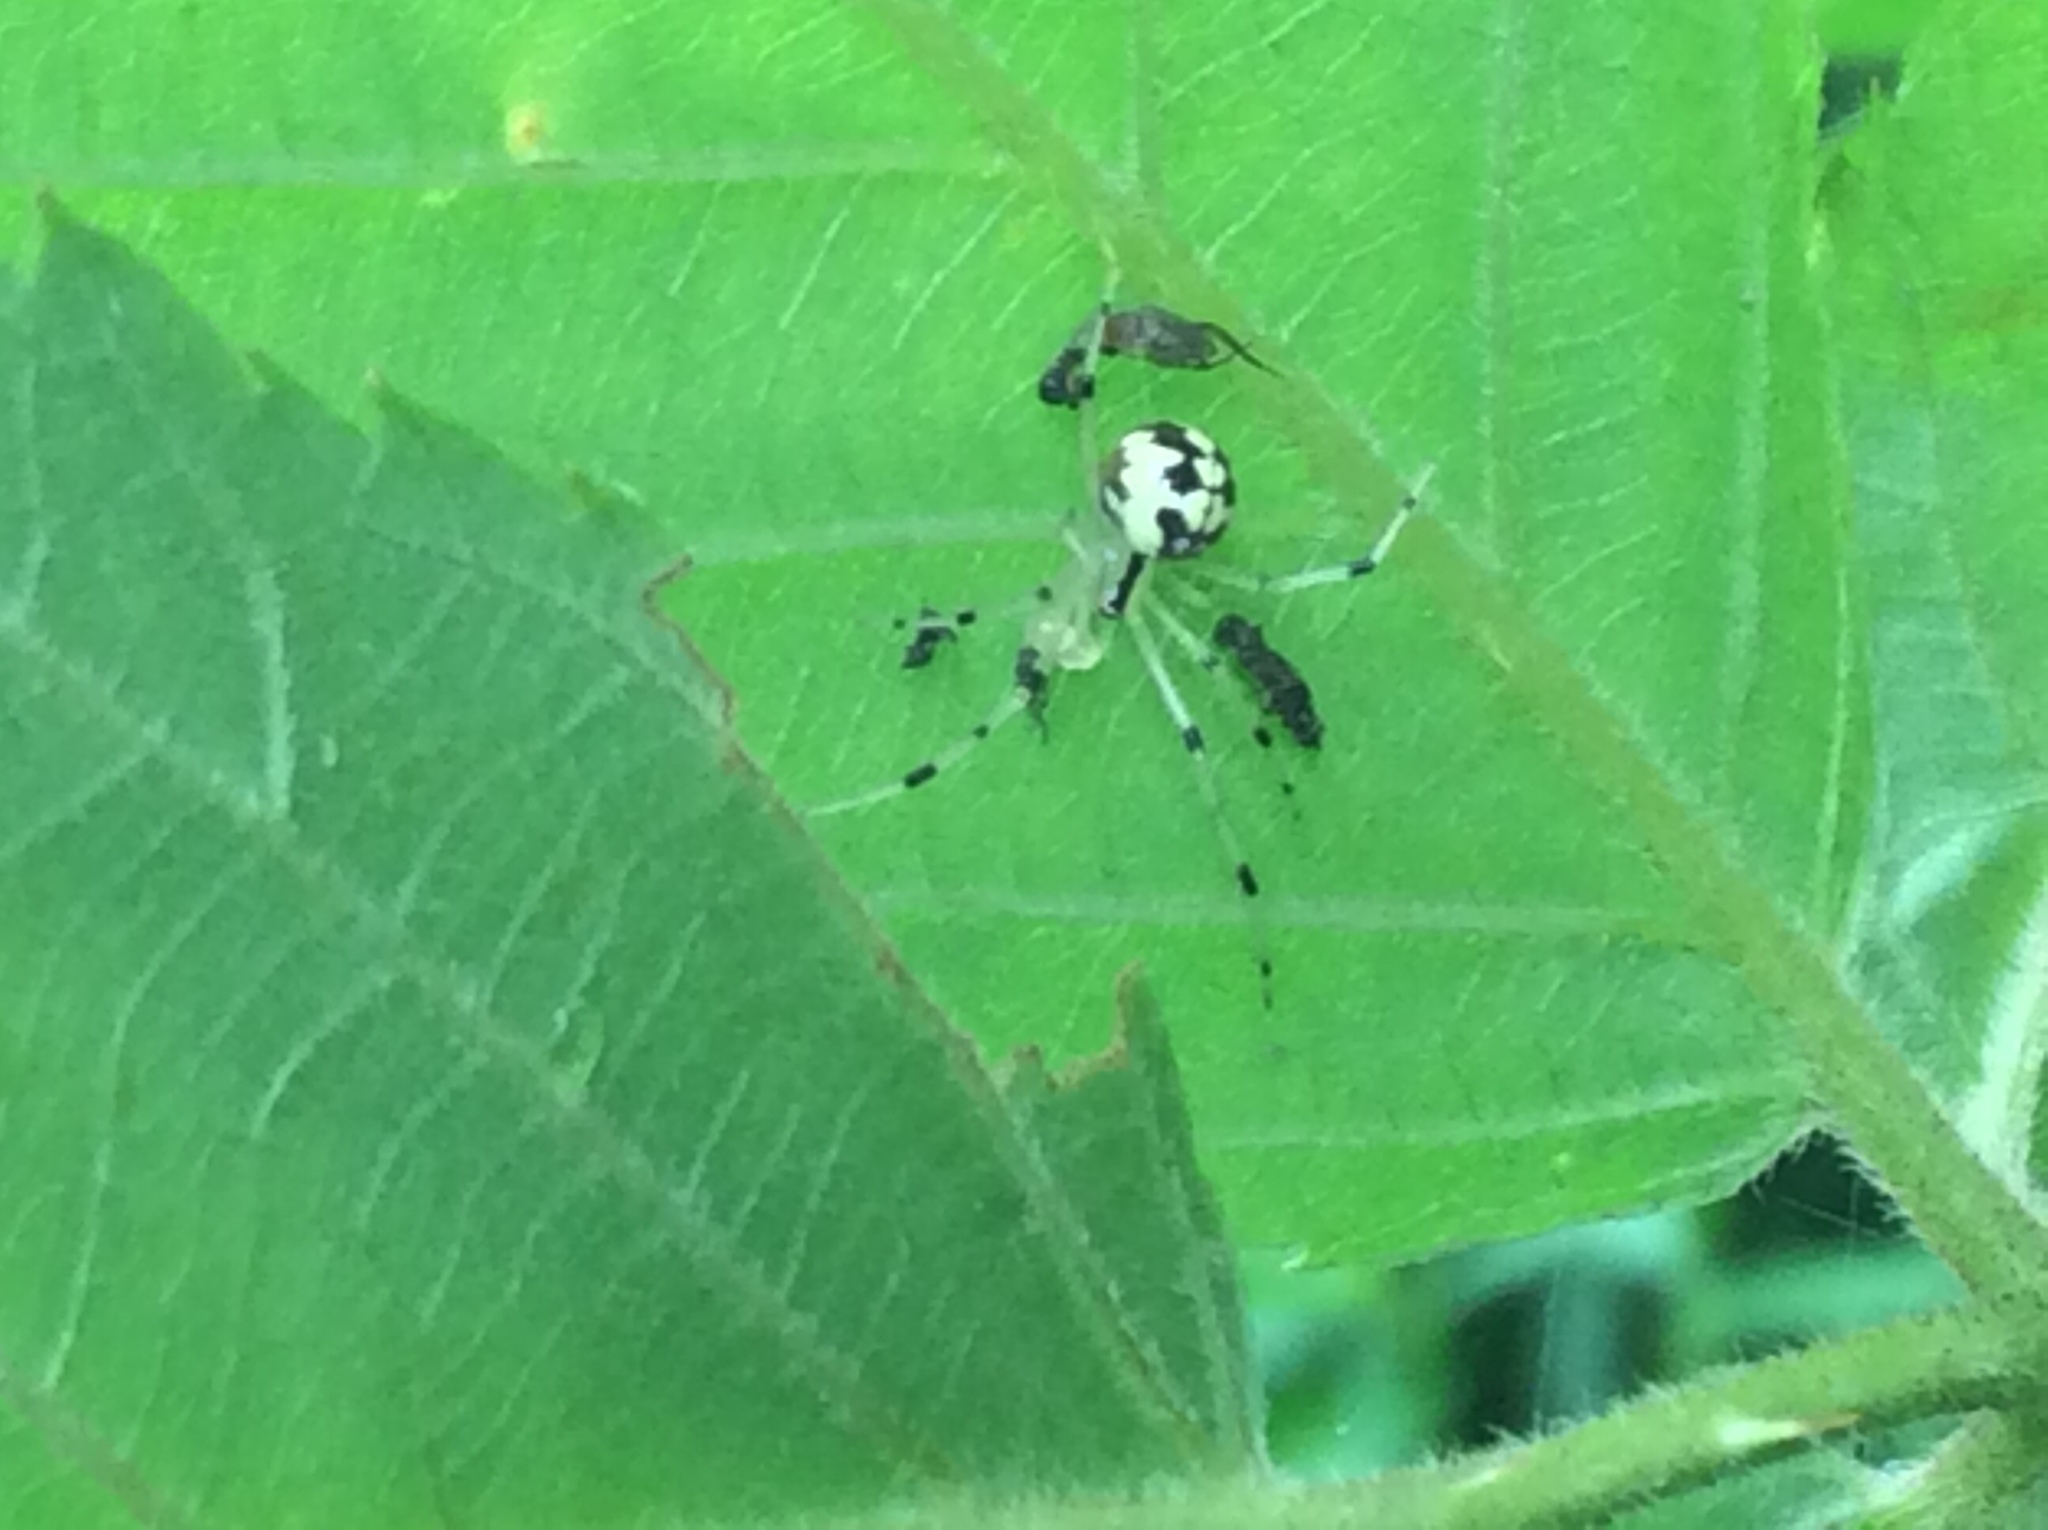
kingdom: Animalia
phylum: Arthropoda
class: Arachnida
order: Araneae
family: Theridiidae
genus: Phylloneta
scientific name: Phylloneta pictipes
